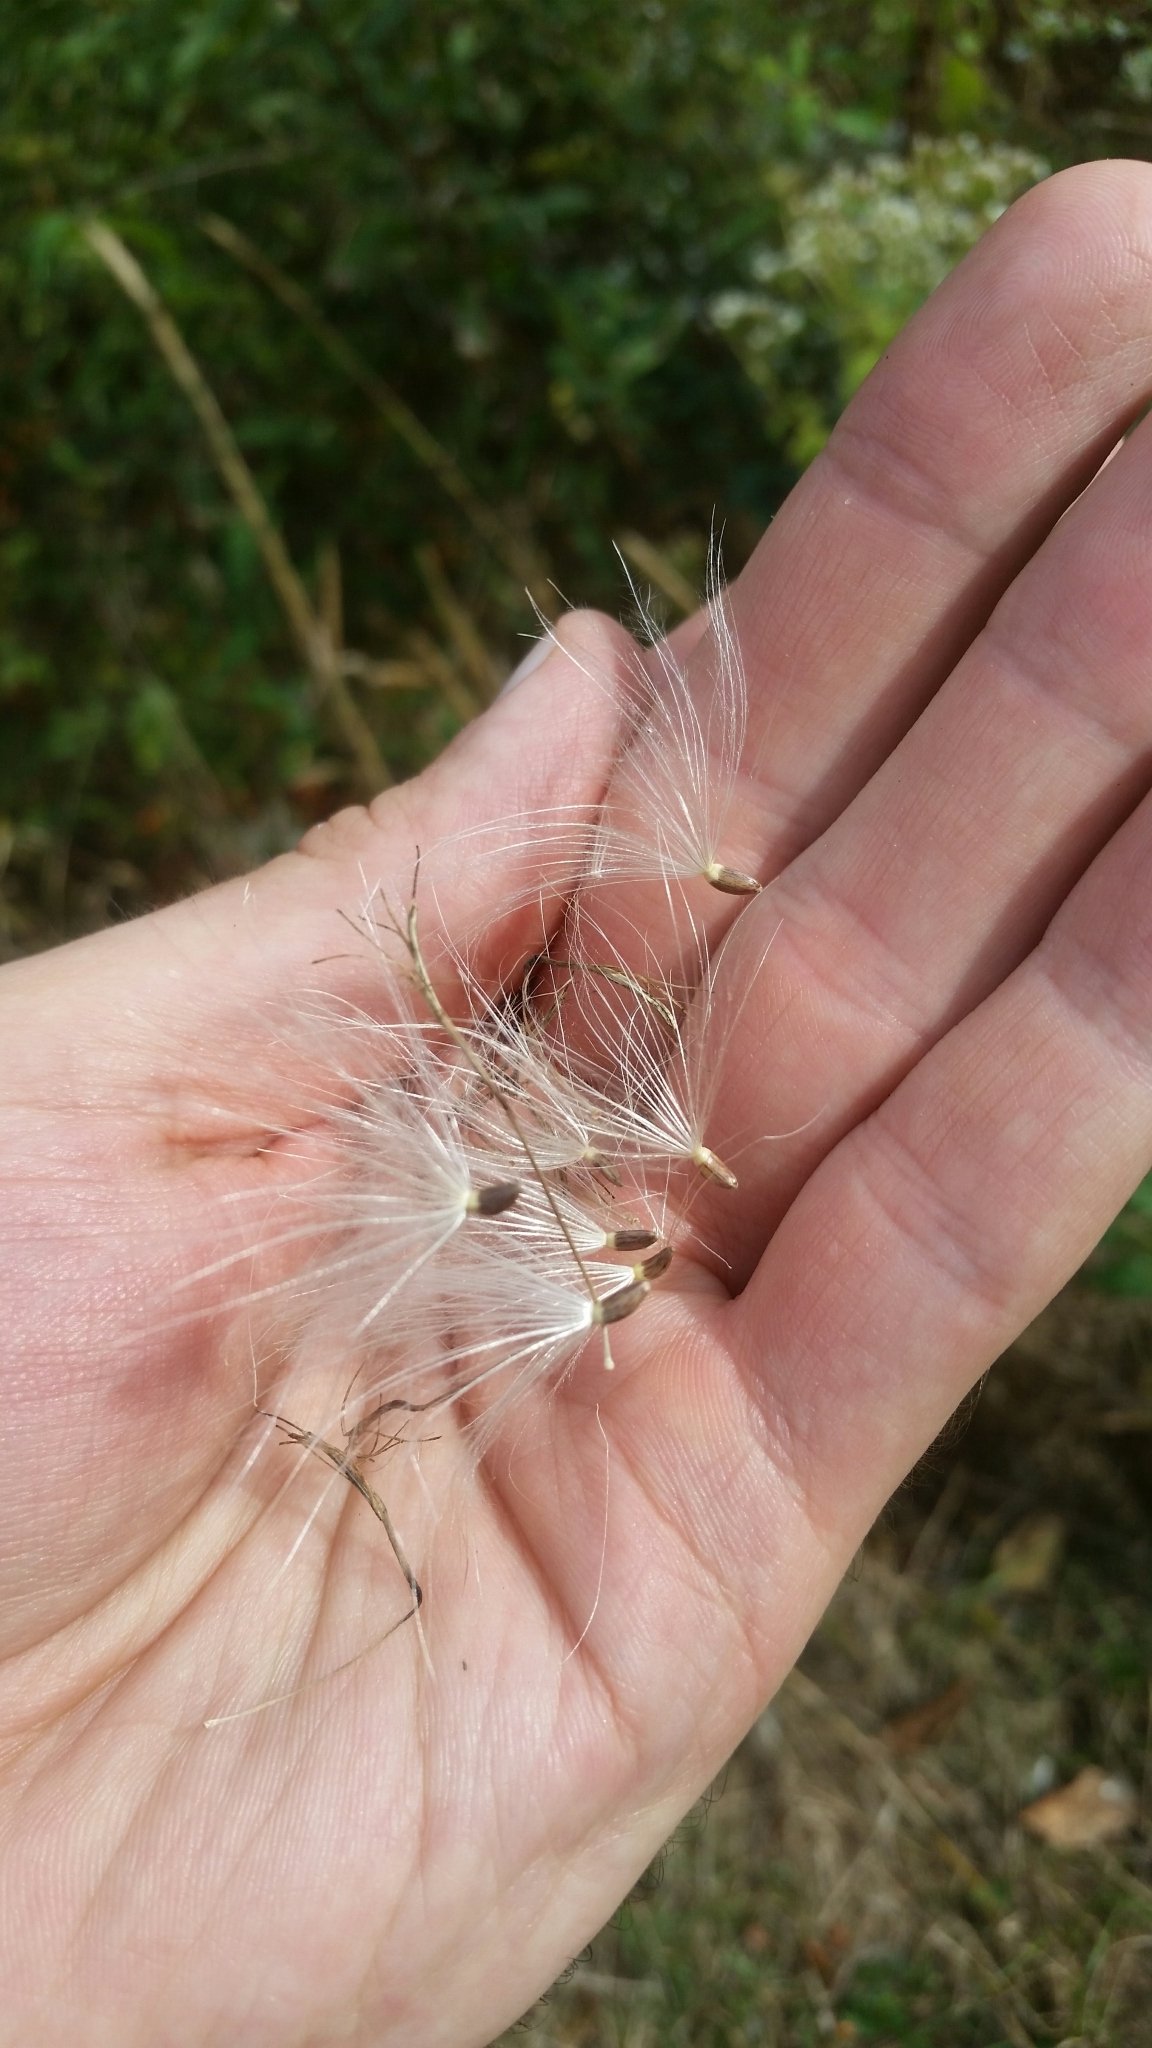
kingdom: Plantae
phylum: Tracheophyta
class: Magnoliopsida
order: Asterales
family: Asteraceae
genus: Cirsium
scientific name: Cirsium discolor
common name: Field thistle
